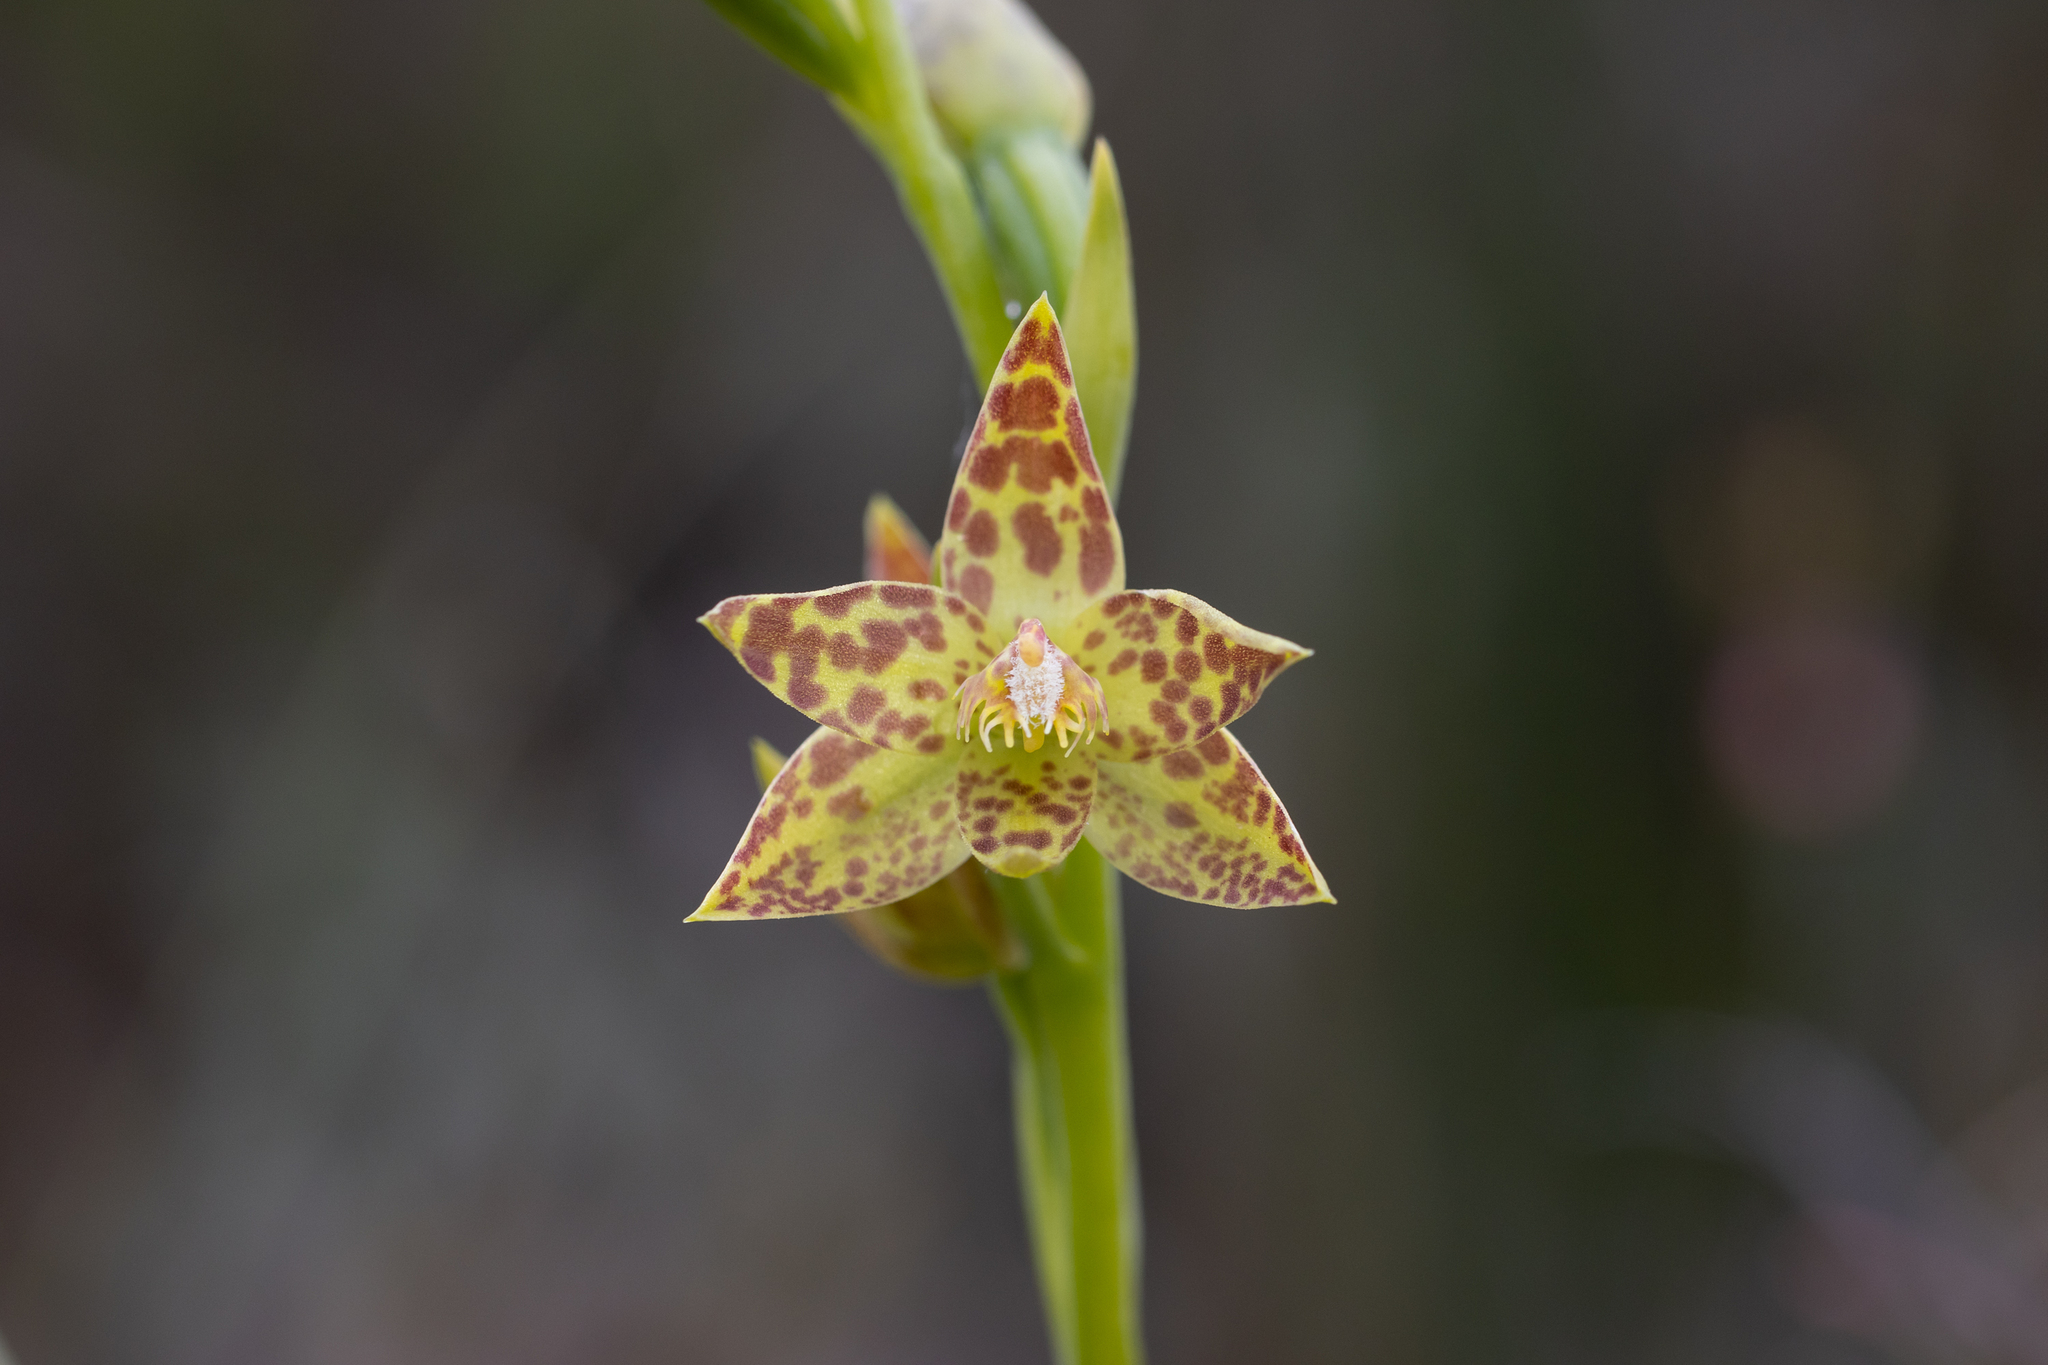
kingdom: Plantae
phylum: Tracheophyta
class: Liliopsida
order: Asparagales
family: Orchidaceae
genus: Thelymitra
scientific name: Thelymitra benthamiana
